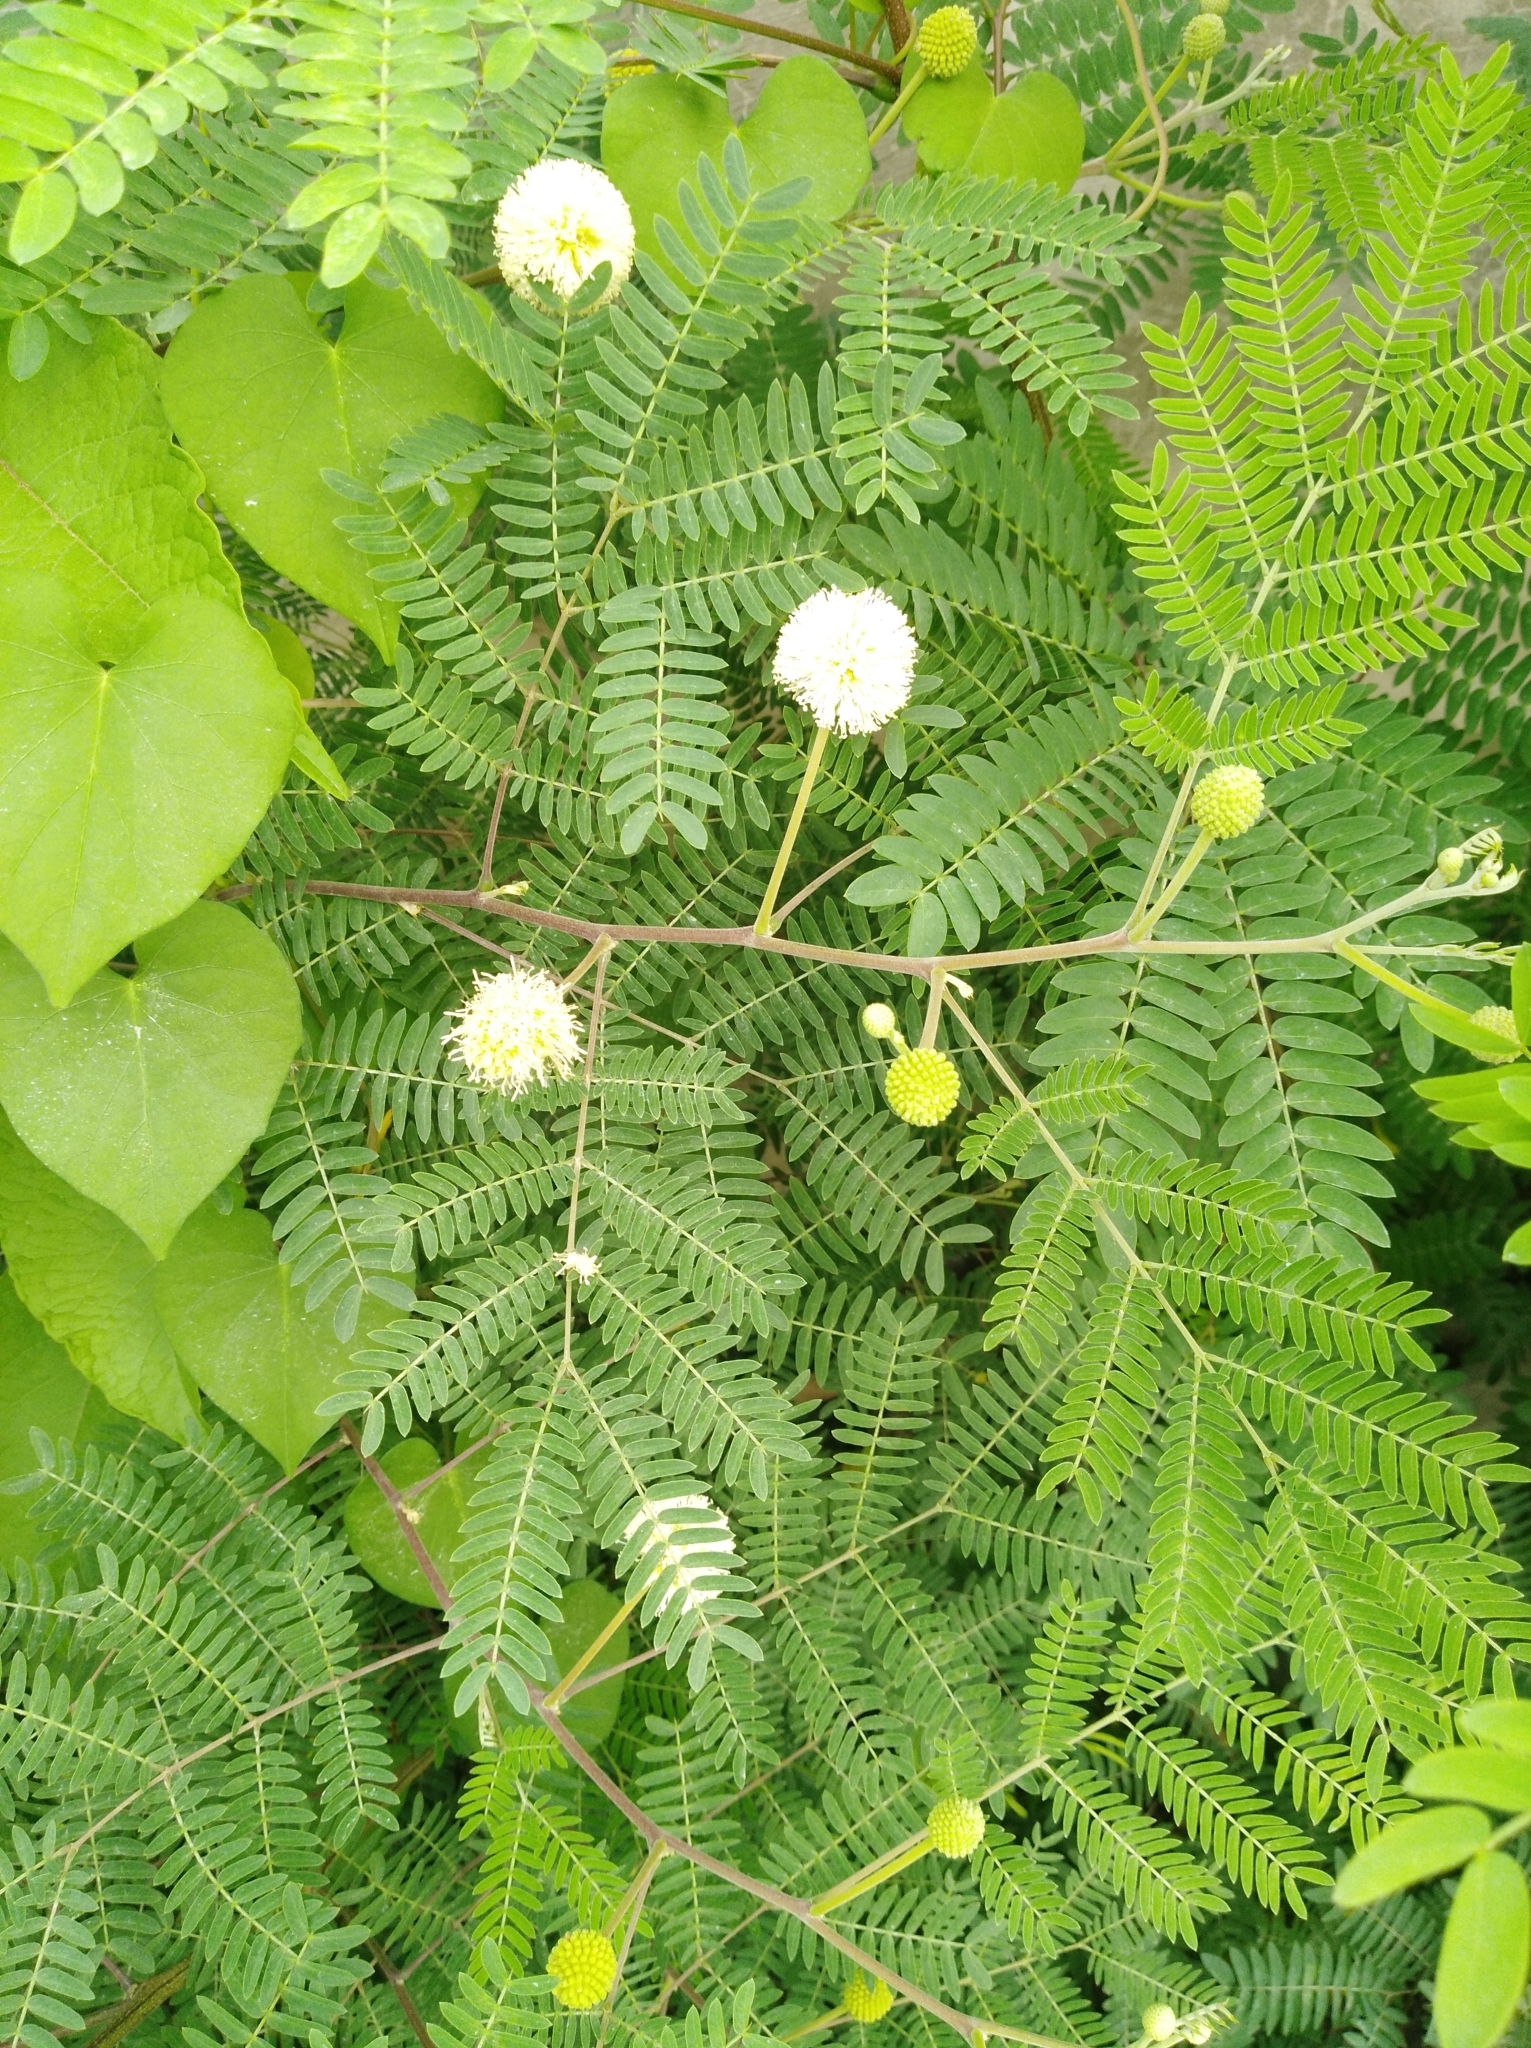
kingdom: Plantae
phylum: Tracheophyta
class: Magnoliopsida
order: Fabales
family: Fabaceae
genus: Leucaena
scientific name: Leucaena leucocephala
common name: White leadtree
